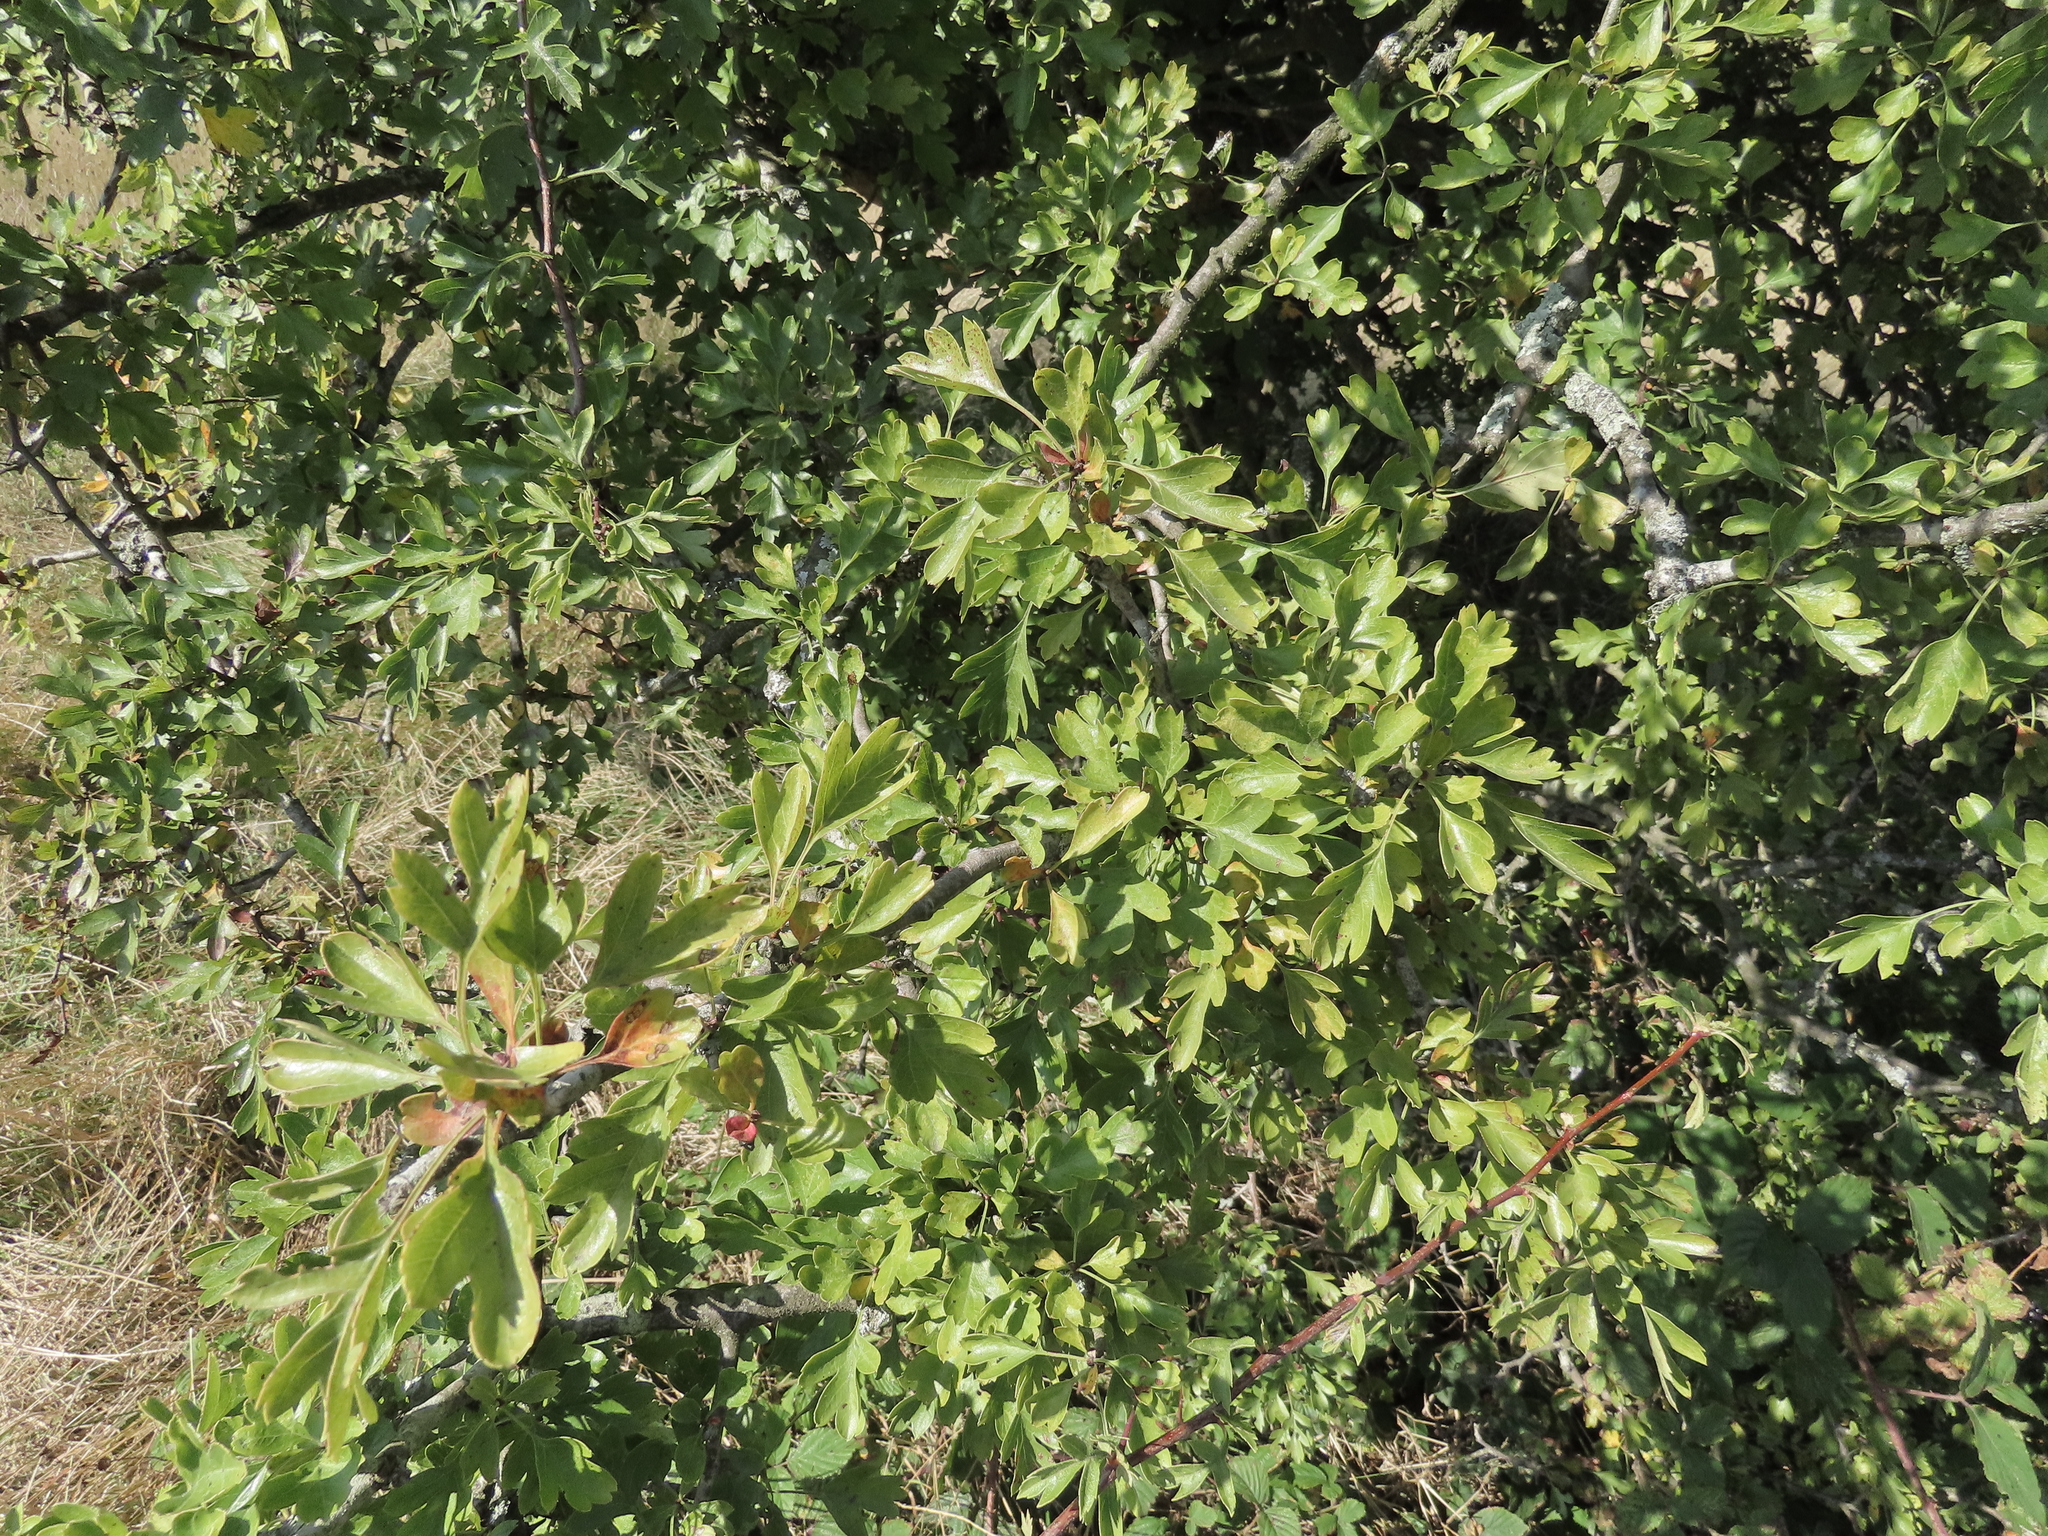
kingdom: Plantae
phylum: Tracheophyta
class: Magnoliopsida
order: Rosales
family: Rosaceae
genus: Crataegus
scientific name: Crataegus monogyna
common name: Hawthorn
